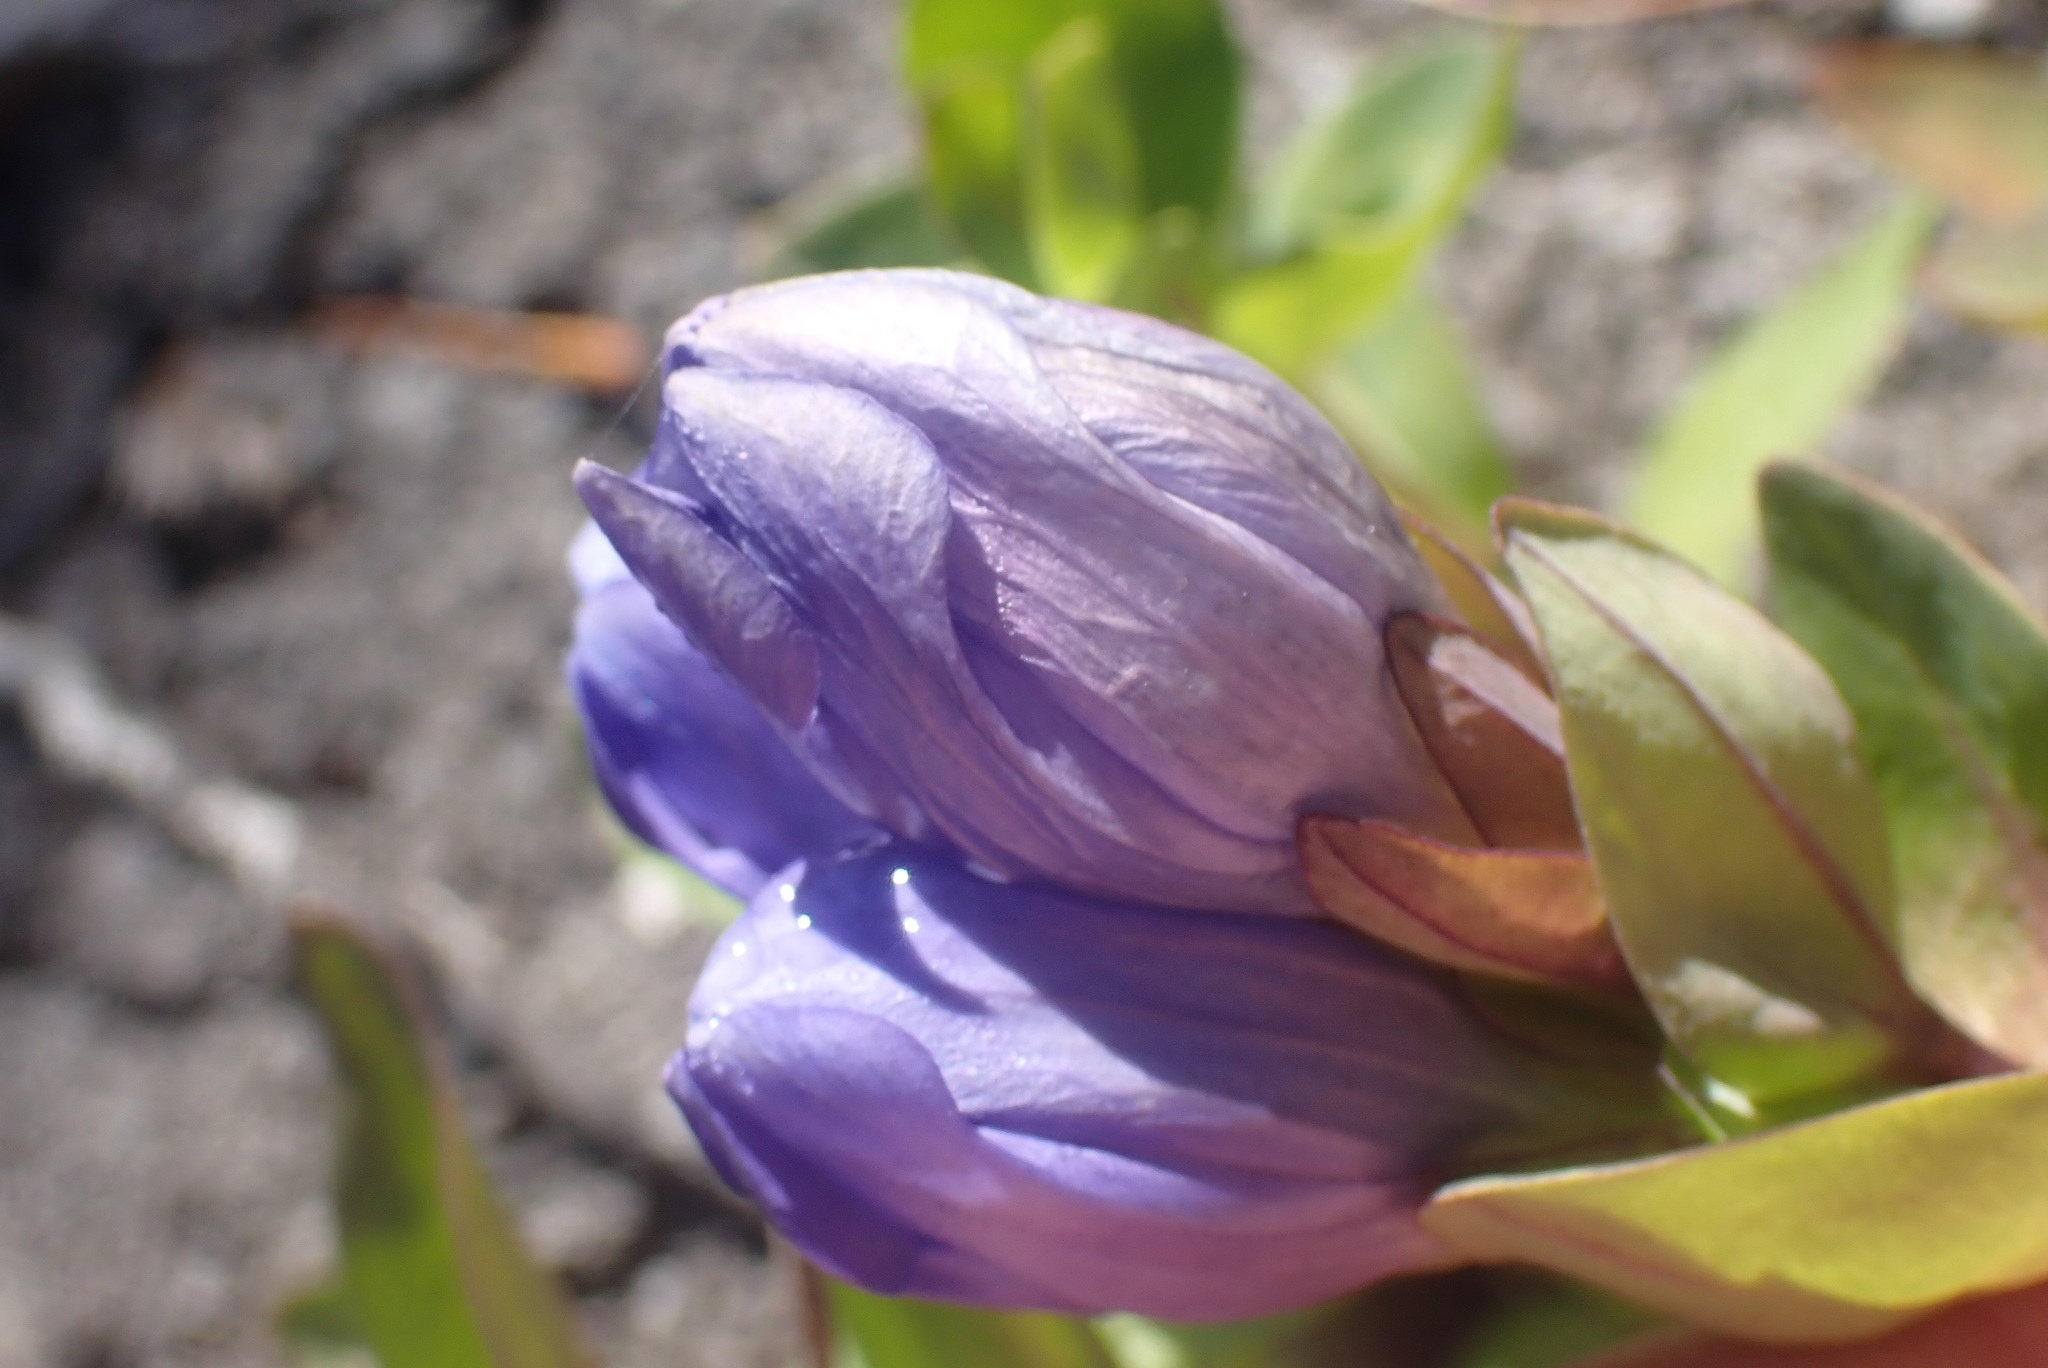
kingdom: Plantae
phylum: Tracheophyta
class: Magnoliopsida
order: Gentianales
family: Gentianaceae
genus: Gentiana
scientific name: Gentiana sceptrum
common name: Pacific gentian
